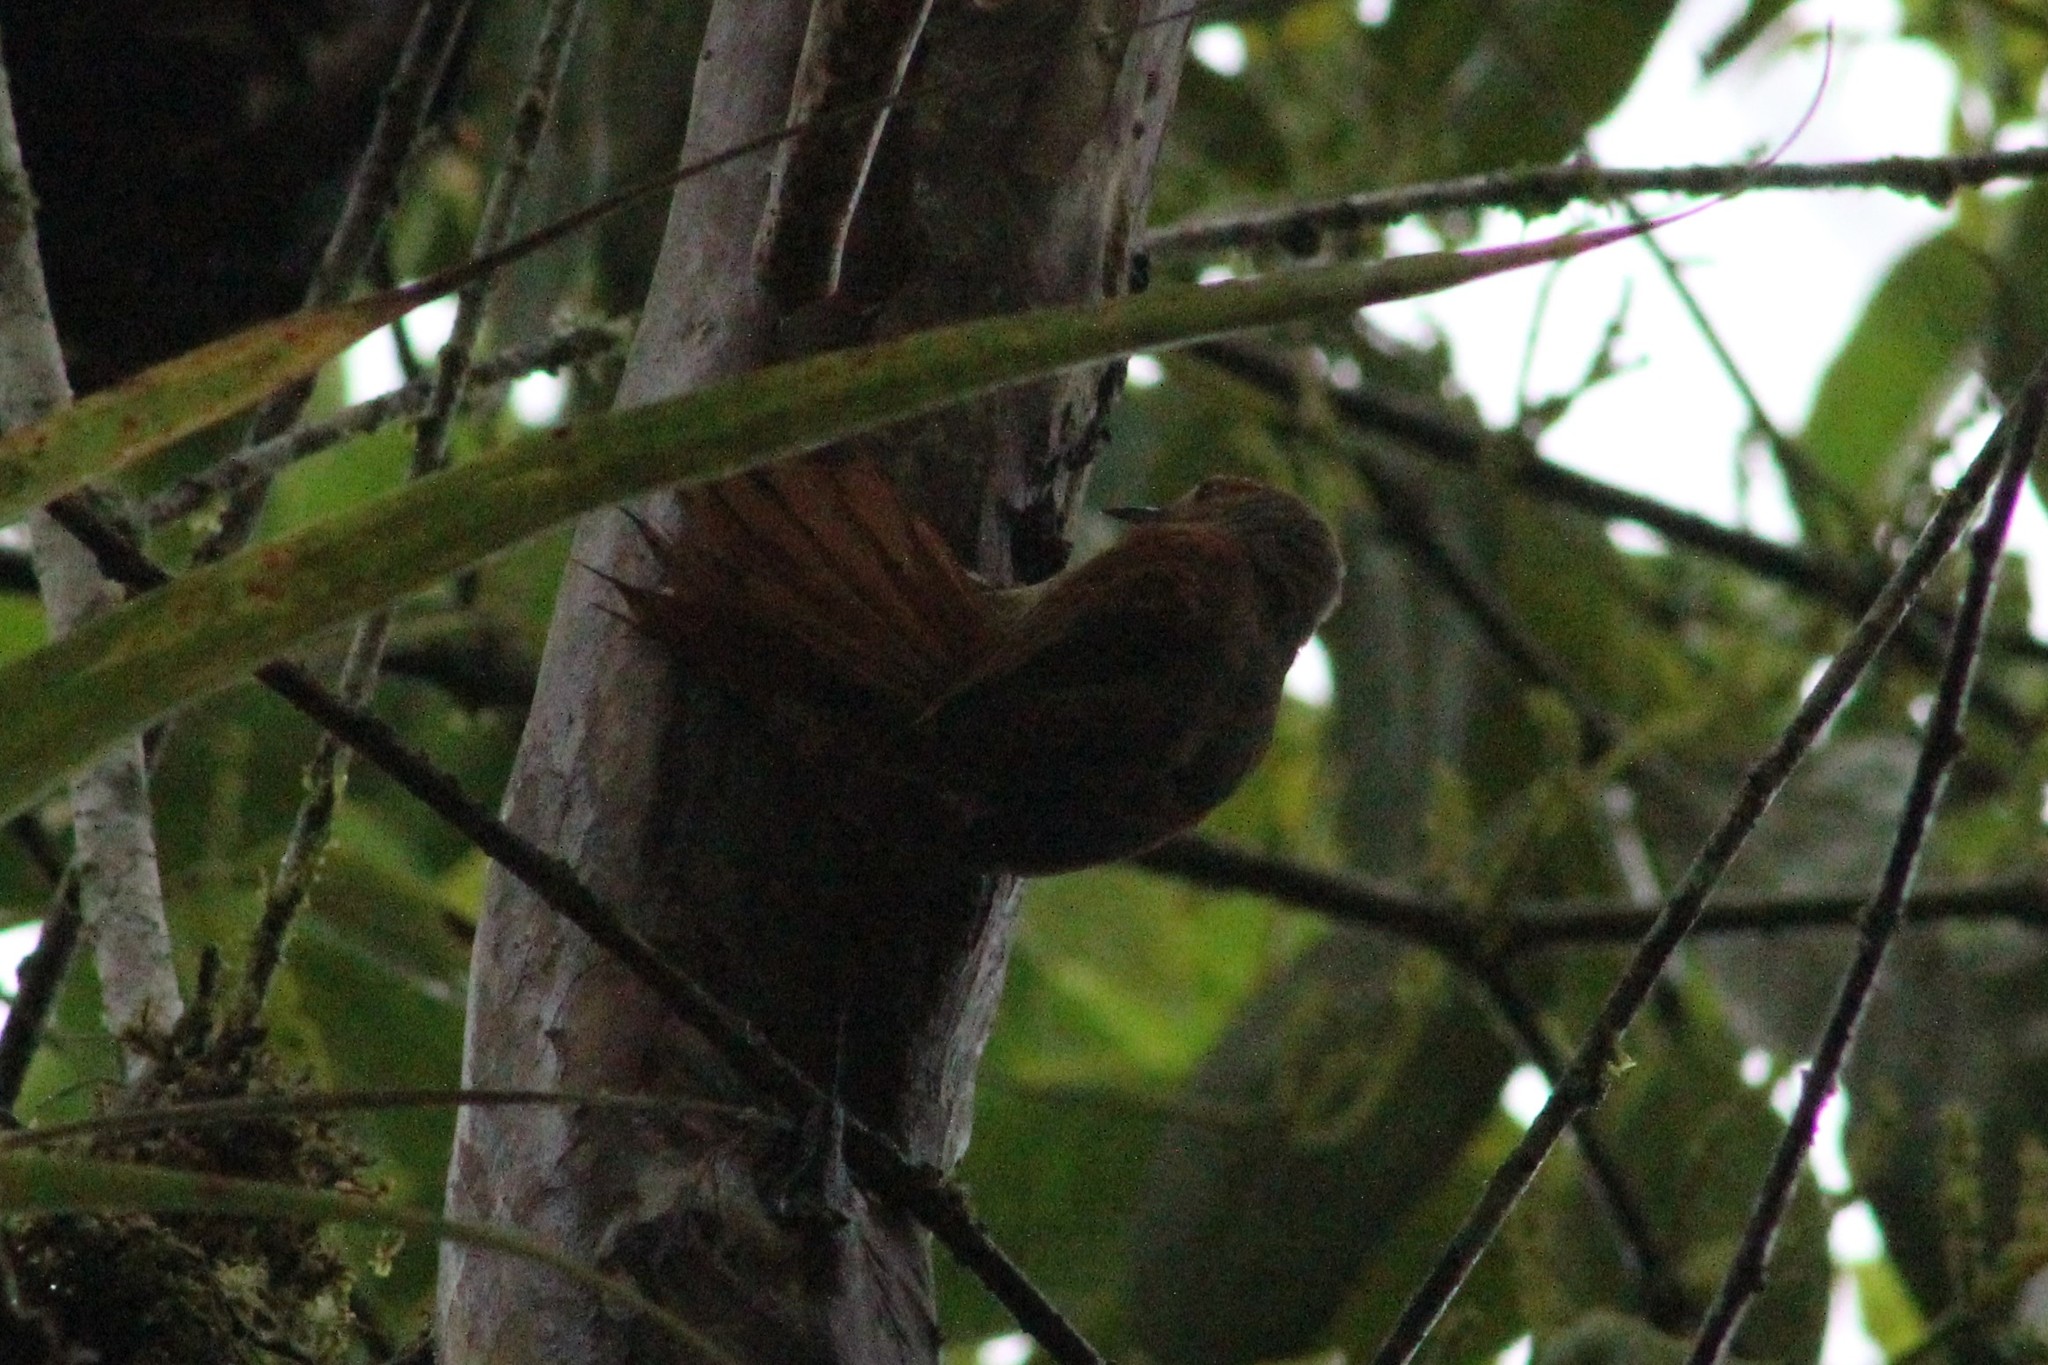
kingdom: Animalia
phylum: Chordata
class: Aves
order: Passeriformes
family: Furnariidae
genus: Cranioleuca
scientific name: Cranioleuca erythrops
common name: Red-faced spinetail
